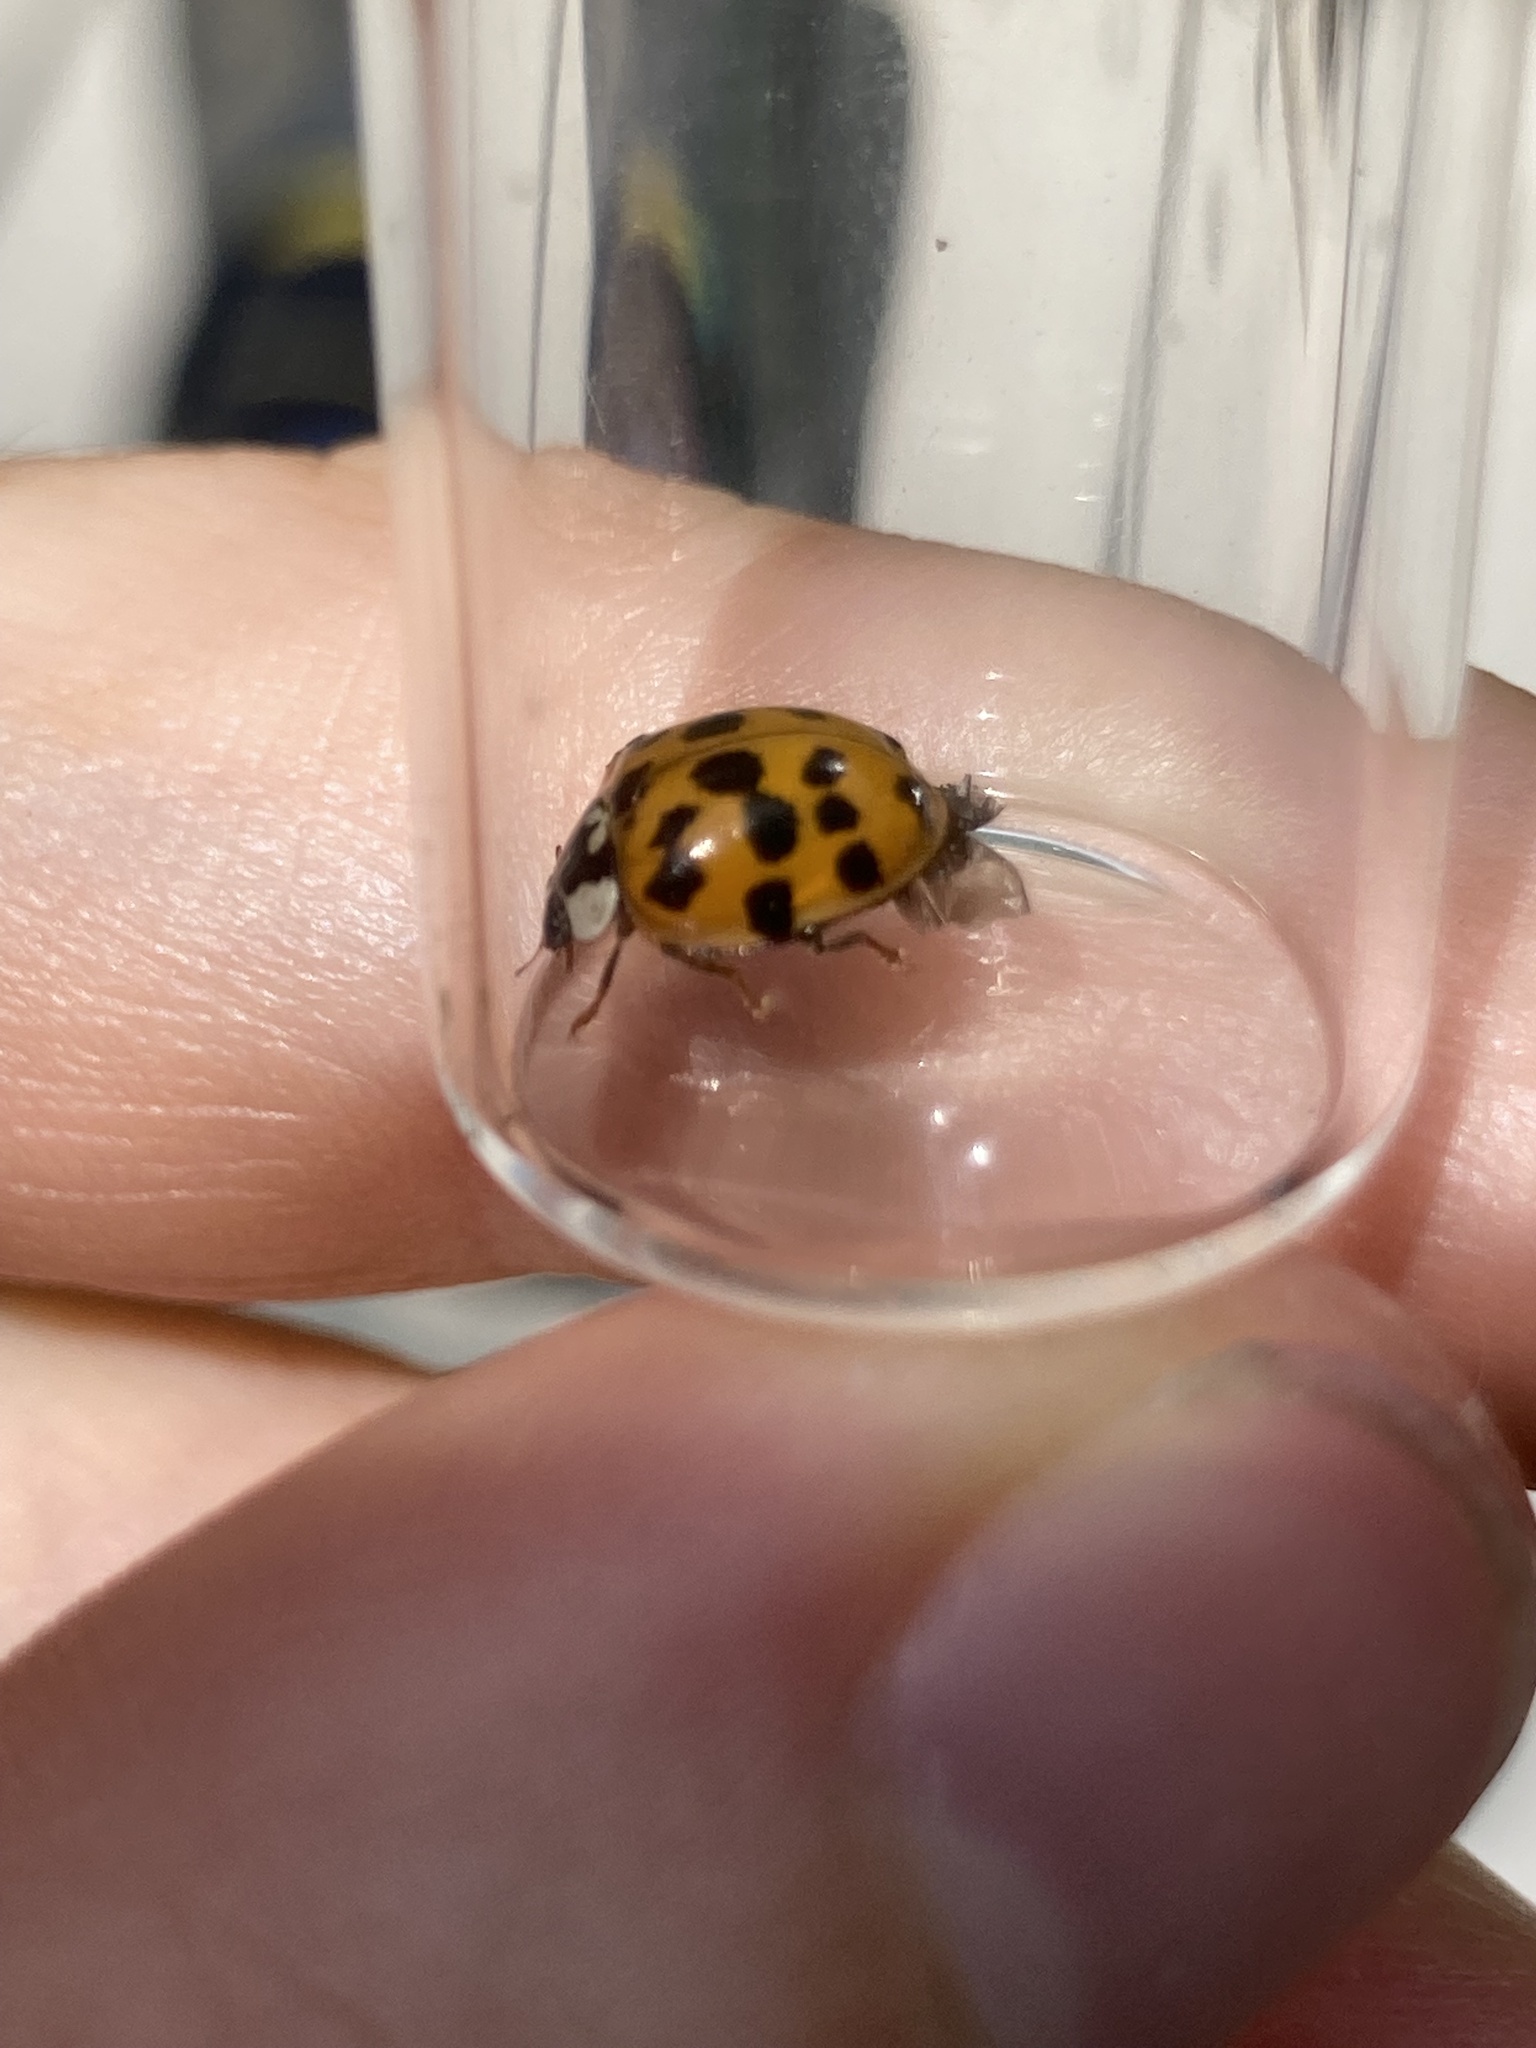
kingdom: Animalia
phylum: Arthropoda
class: Insecta
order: Coleoptera
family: Coccinellidae
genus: Harmonia
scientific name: Harmonia axyridis
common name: Harlequin ladybird
